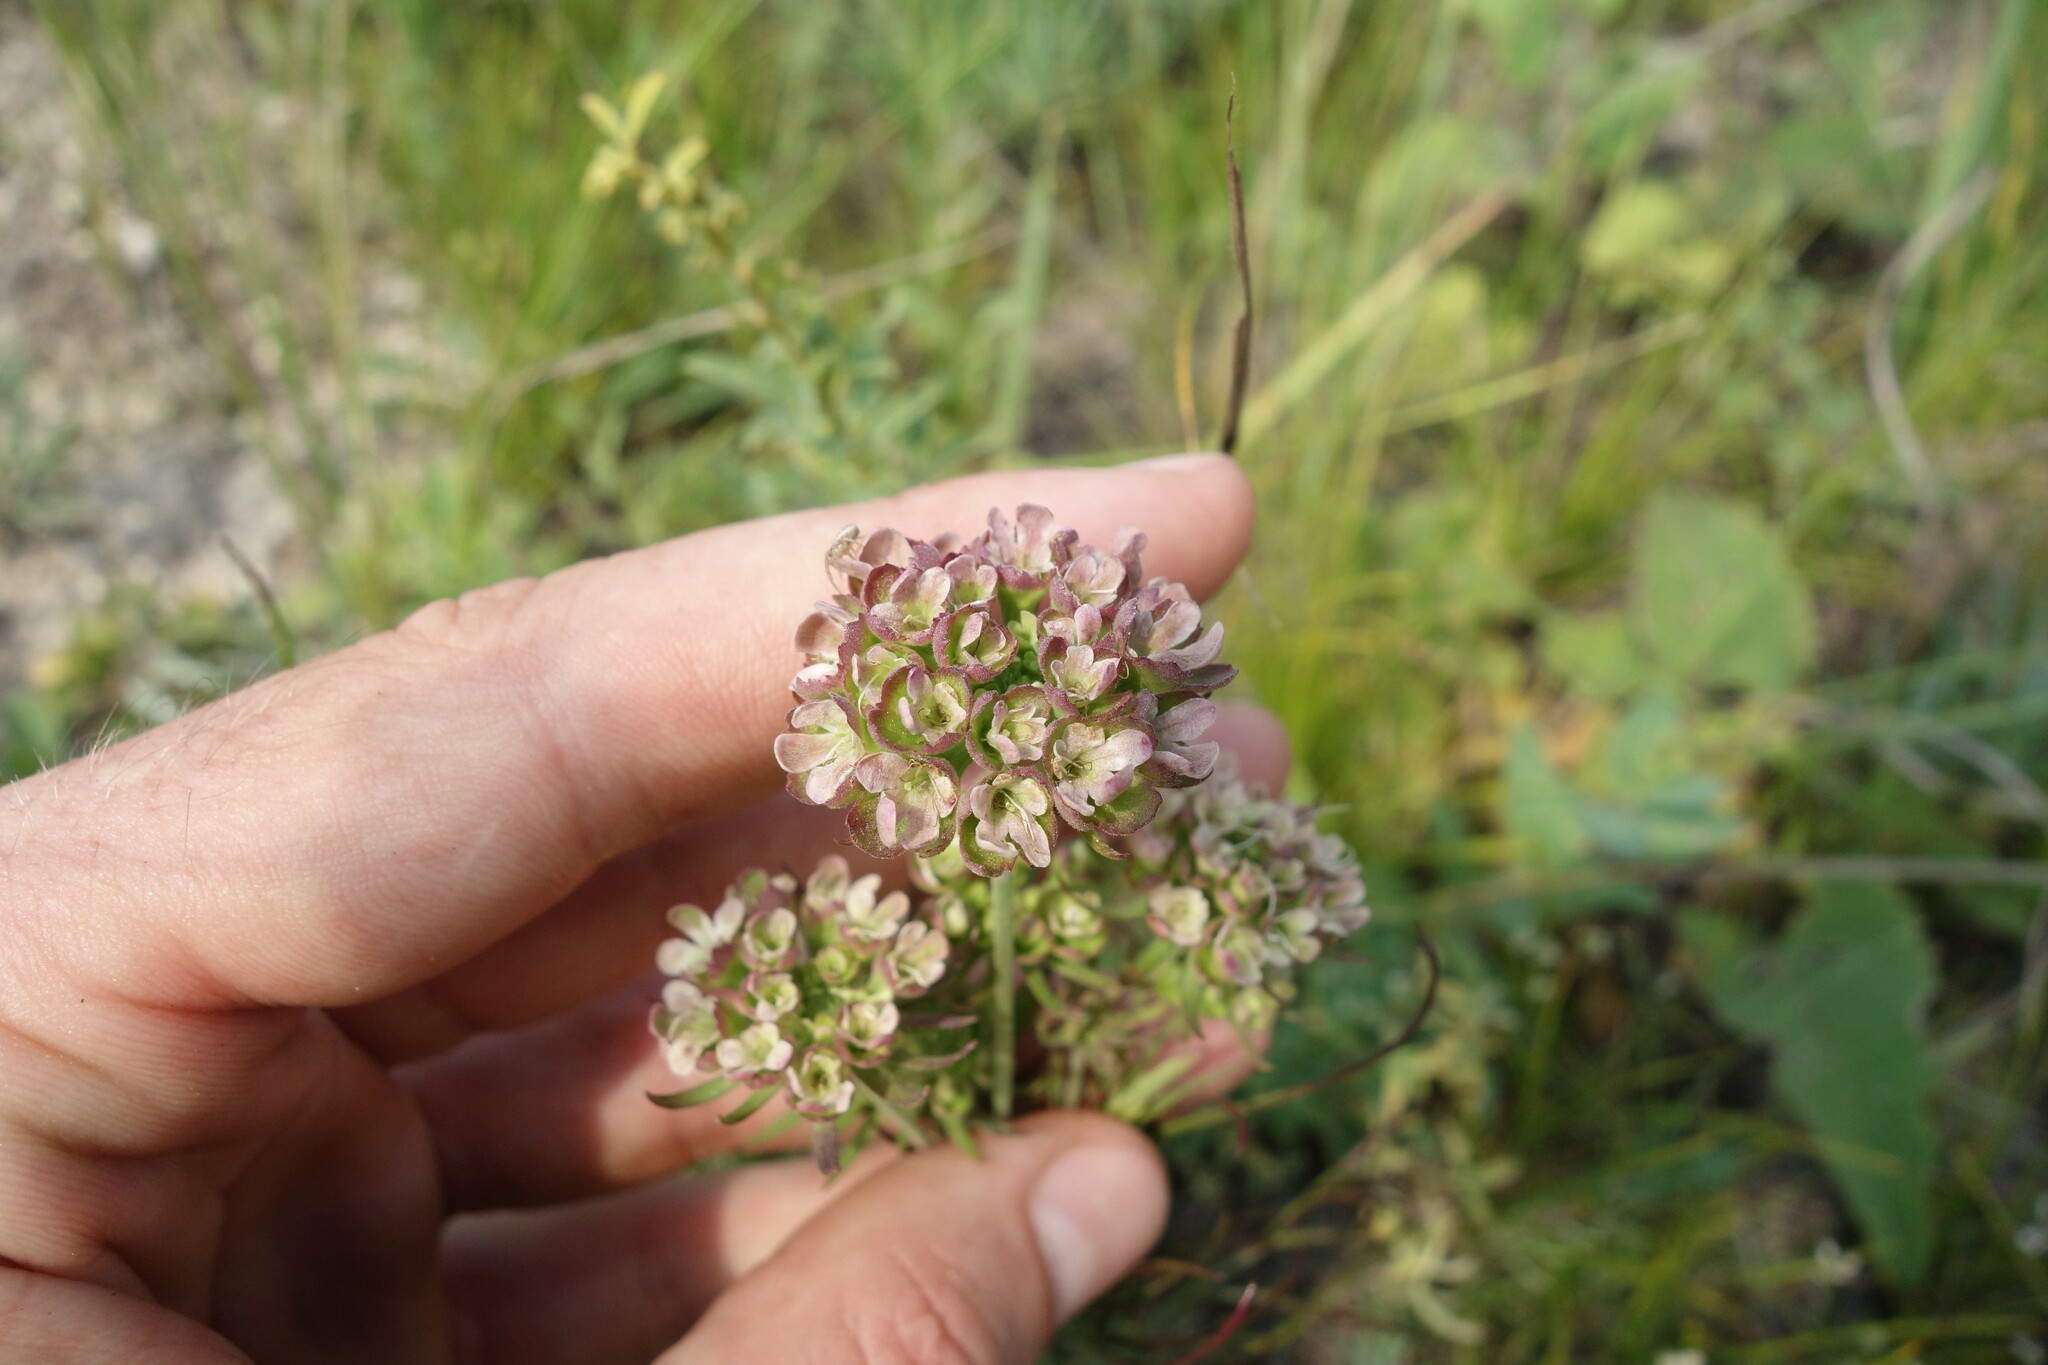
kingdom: Plantae
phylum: Tracheophyta
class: Magnoliopsida
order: Dipsacales
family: Caprifoliaceae
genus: Scabiosa
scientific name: Scabiosa ochroleuca
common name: Cream pincushions
